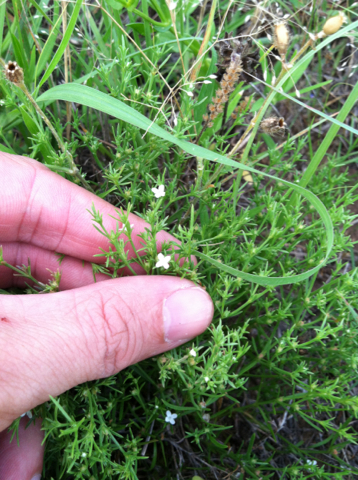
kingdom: Plantae
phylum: Tracheophyta
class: Magnoliopsida
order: Lamiales
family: Tetrachondraceae
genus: Polypremum
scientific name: Polypremum procumbens
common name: Juniper-leaf
